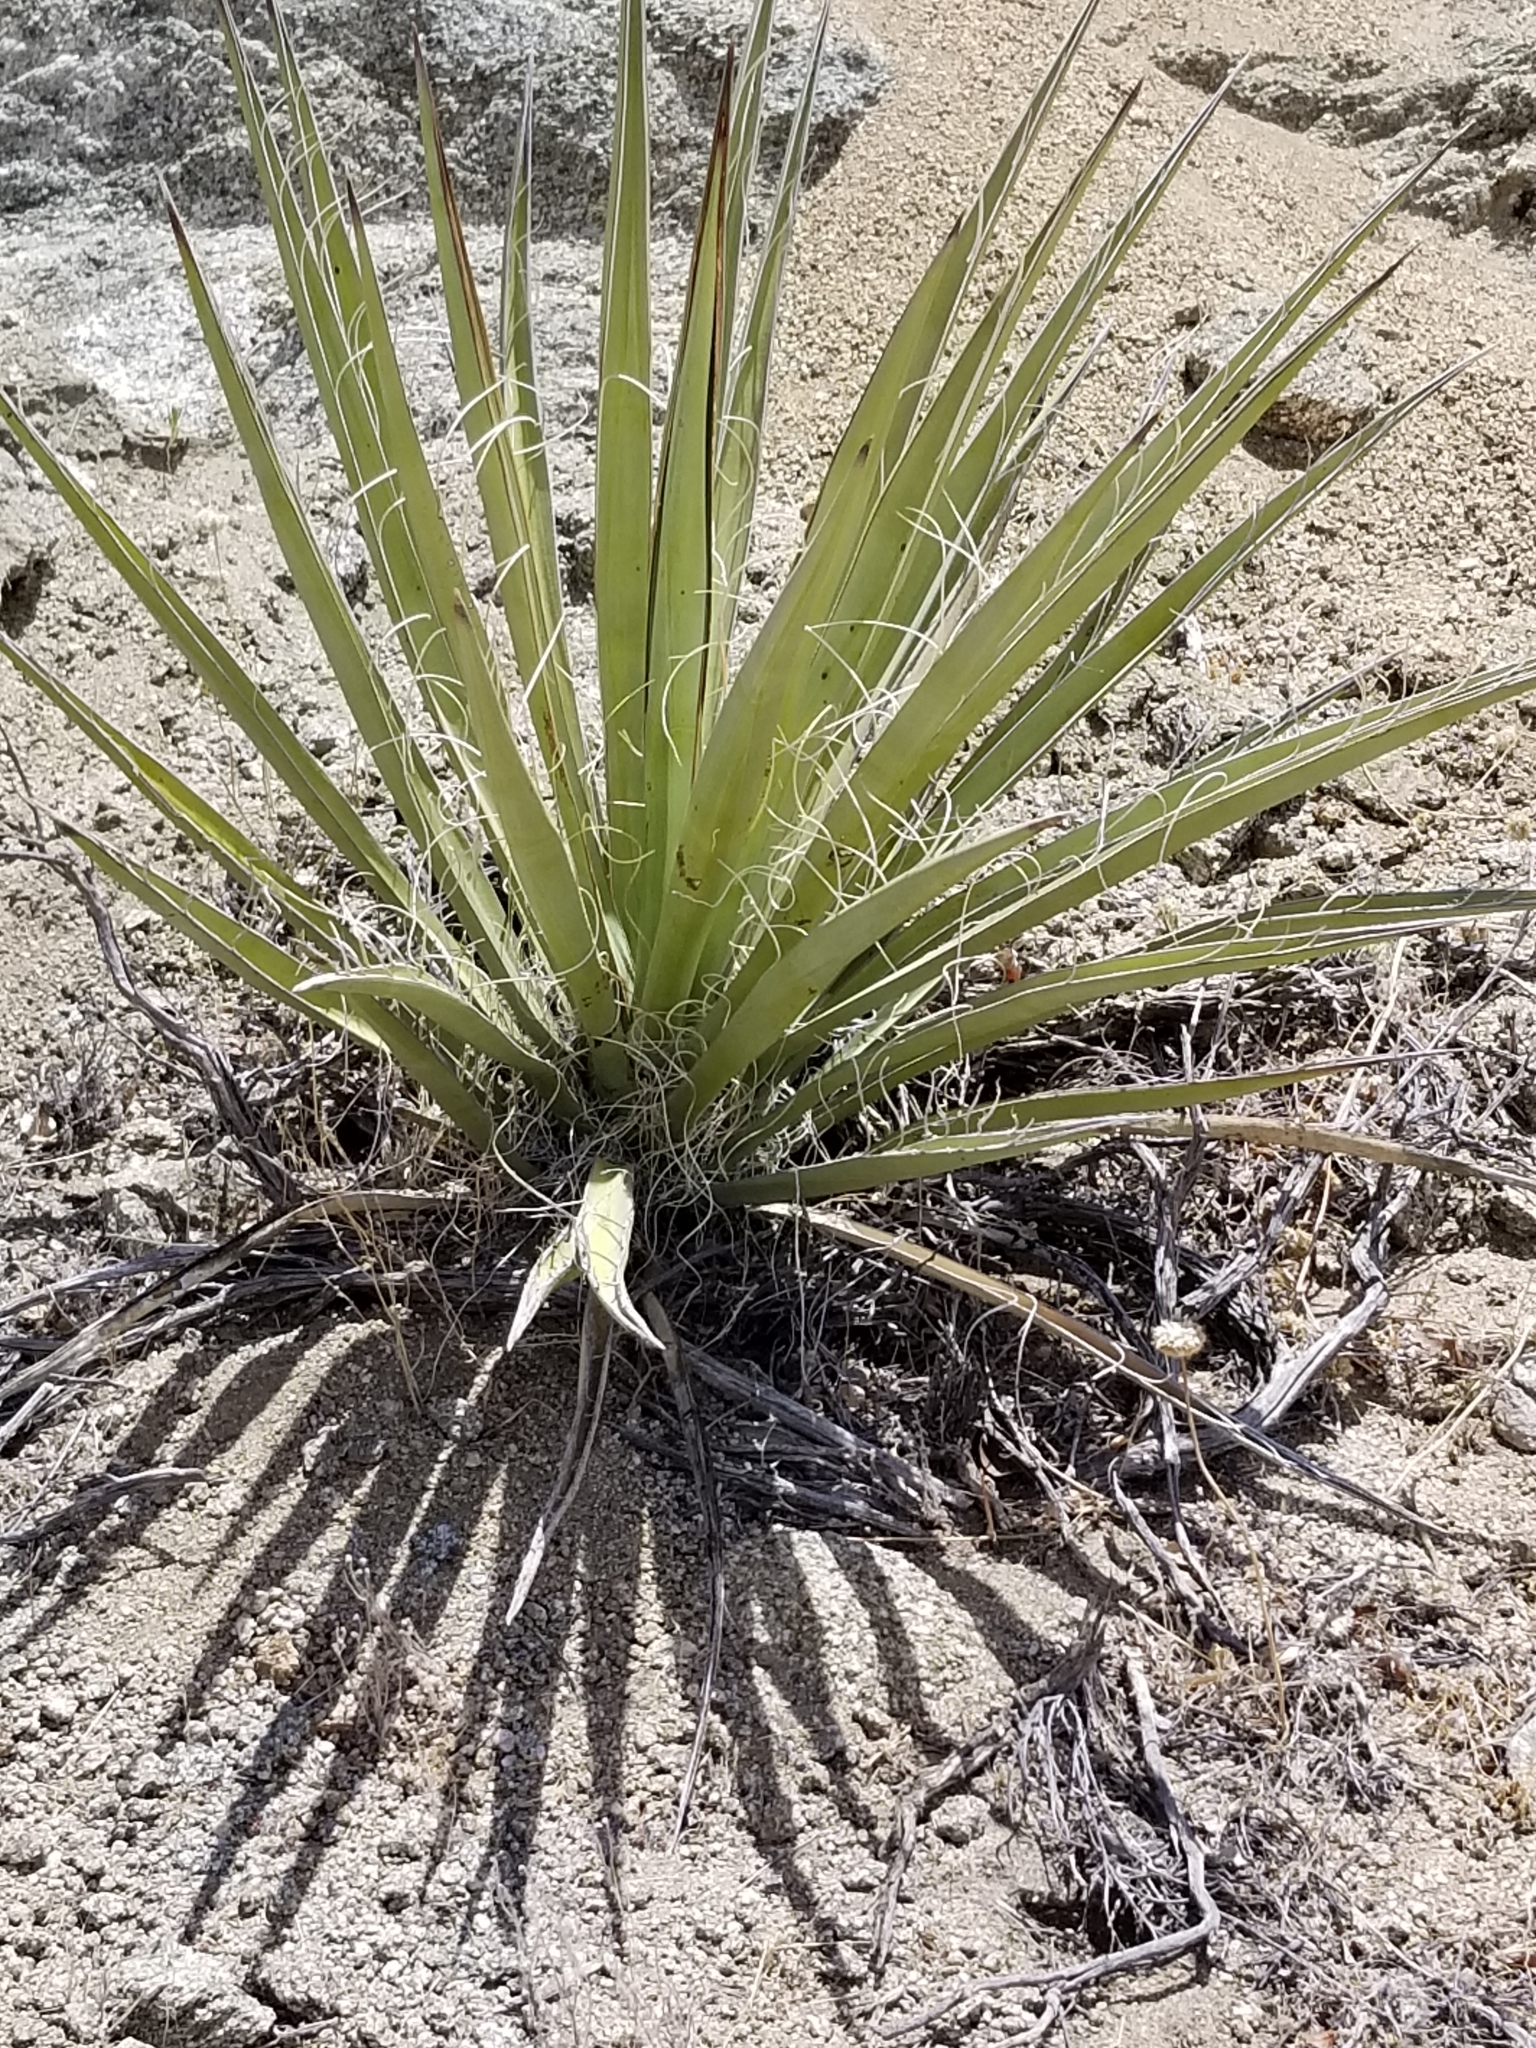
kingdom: Plantae
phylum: Tracheophyta
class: Liliopsida
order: Asparagales
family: Asparagaceae
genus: Yucca
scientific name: Yucca schidigera
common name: Mojave yucca
